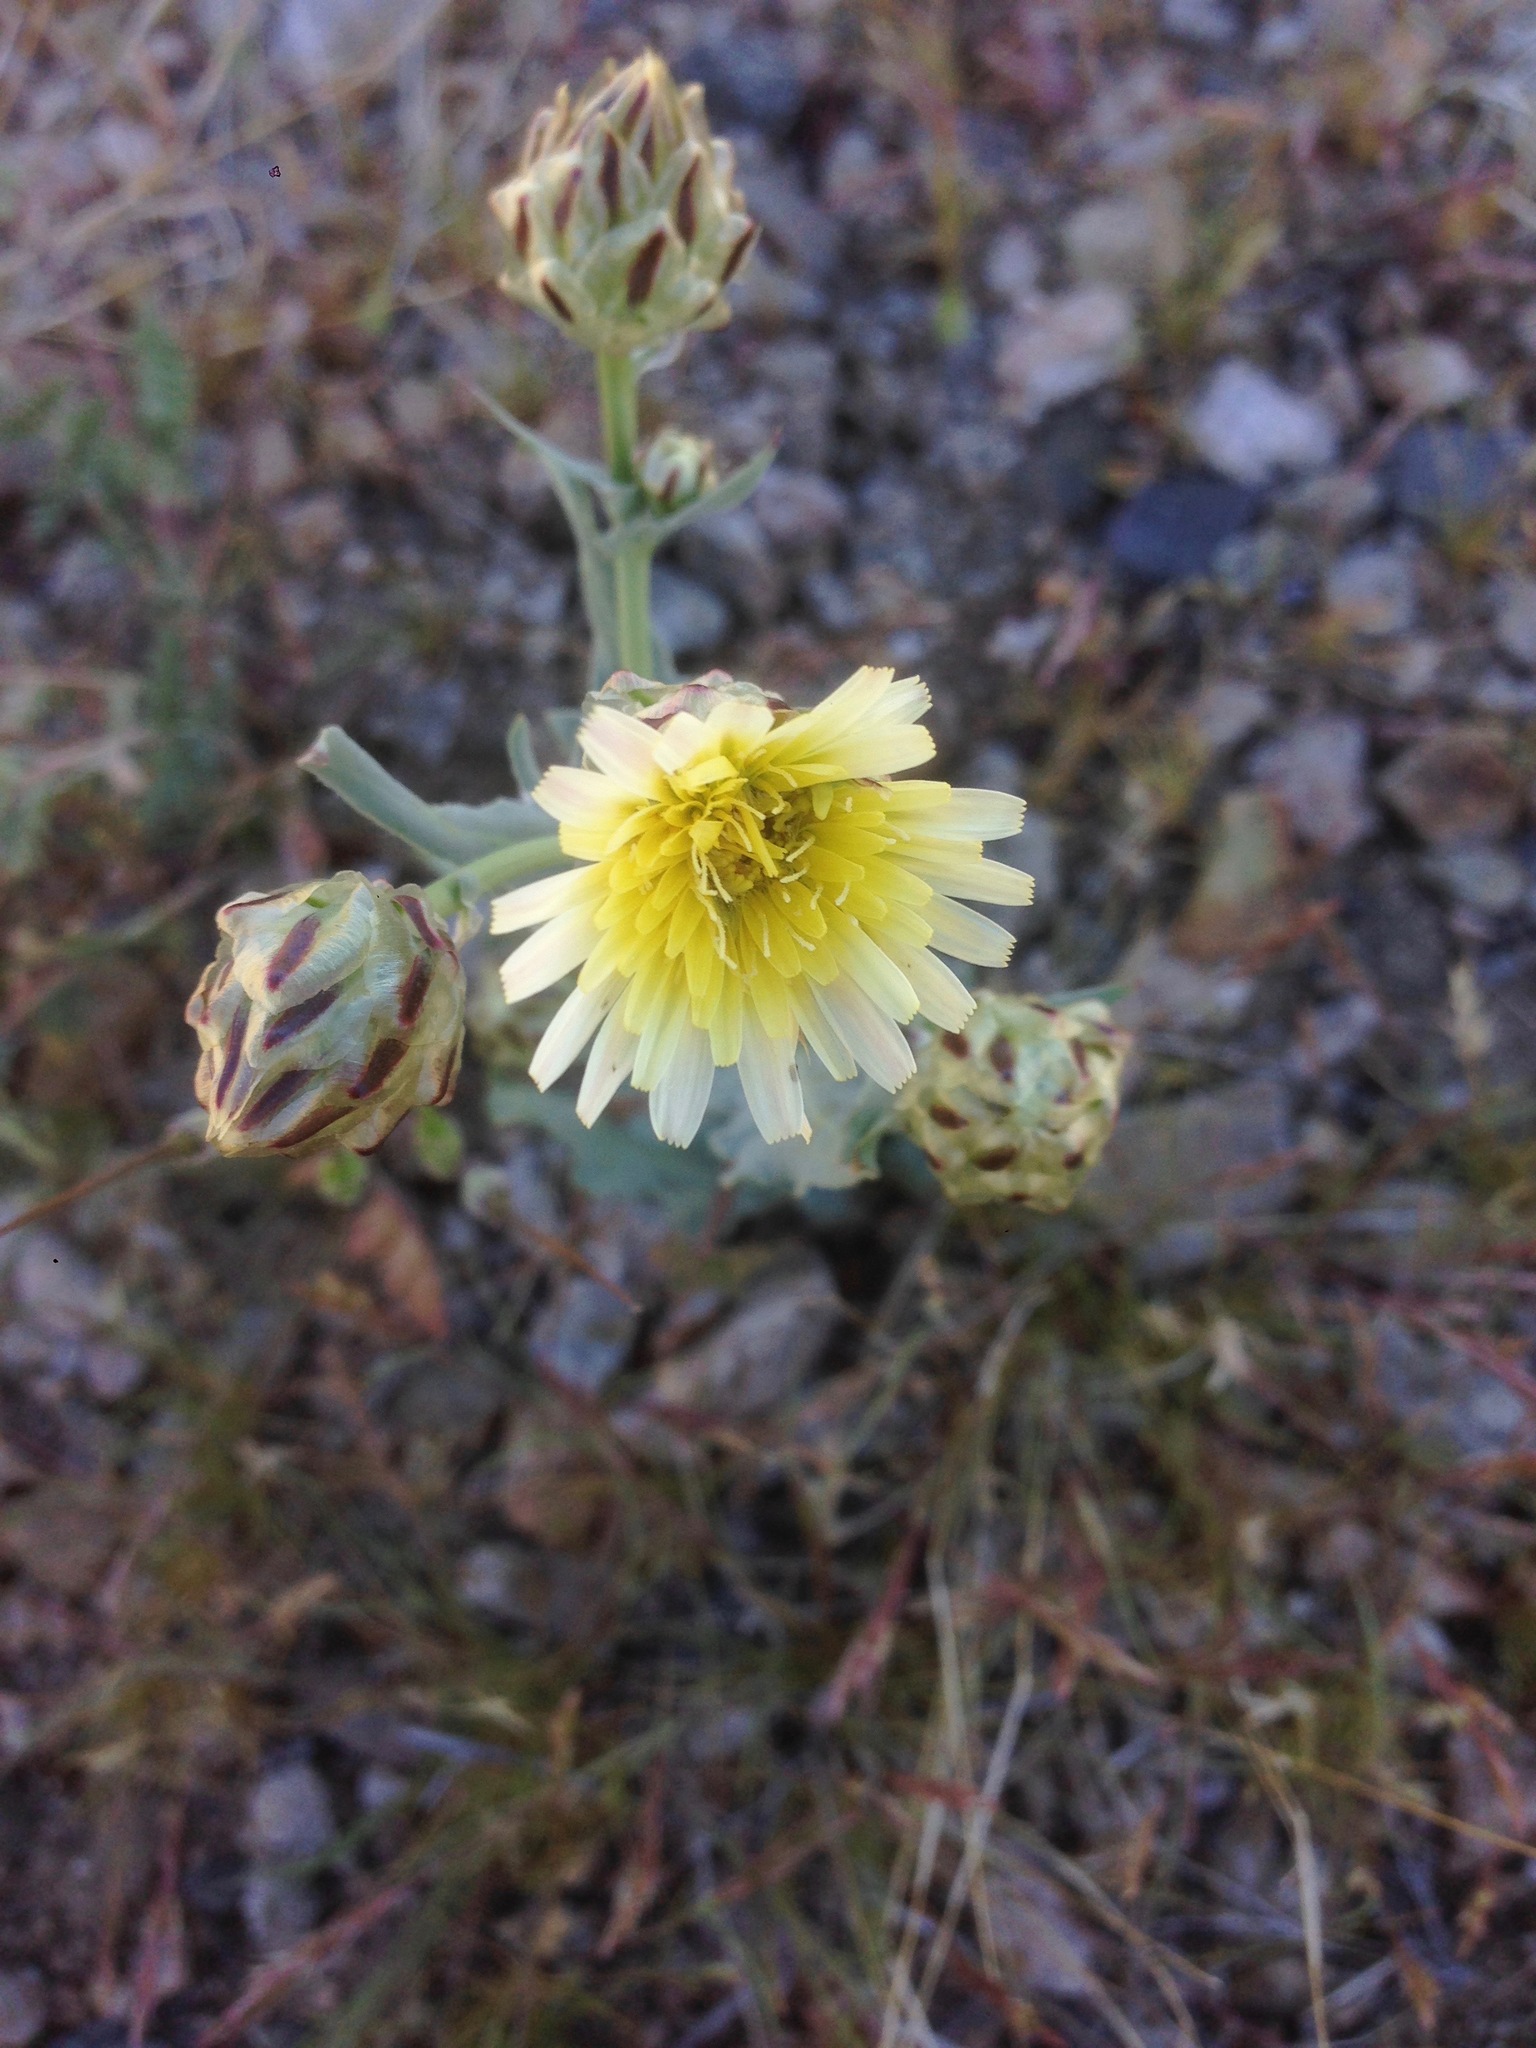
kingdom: Plantae
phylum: Tracheophyta
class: Magnoliopsida
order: Asterales
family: Asteraceae
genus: Malacothrix
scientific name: Malacothrix coulteri
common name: Snake's-head
